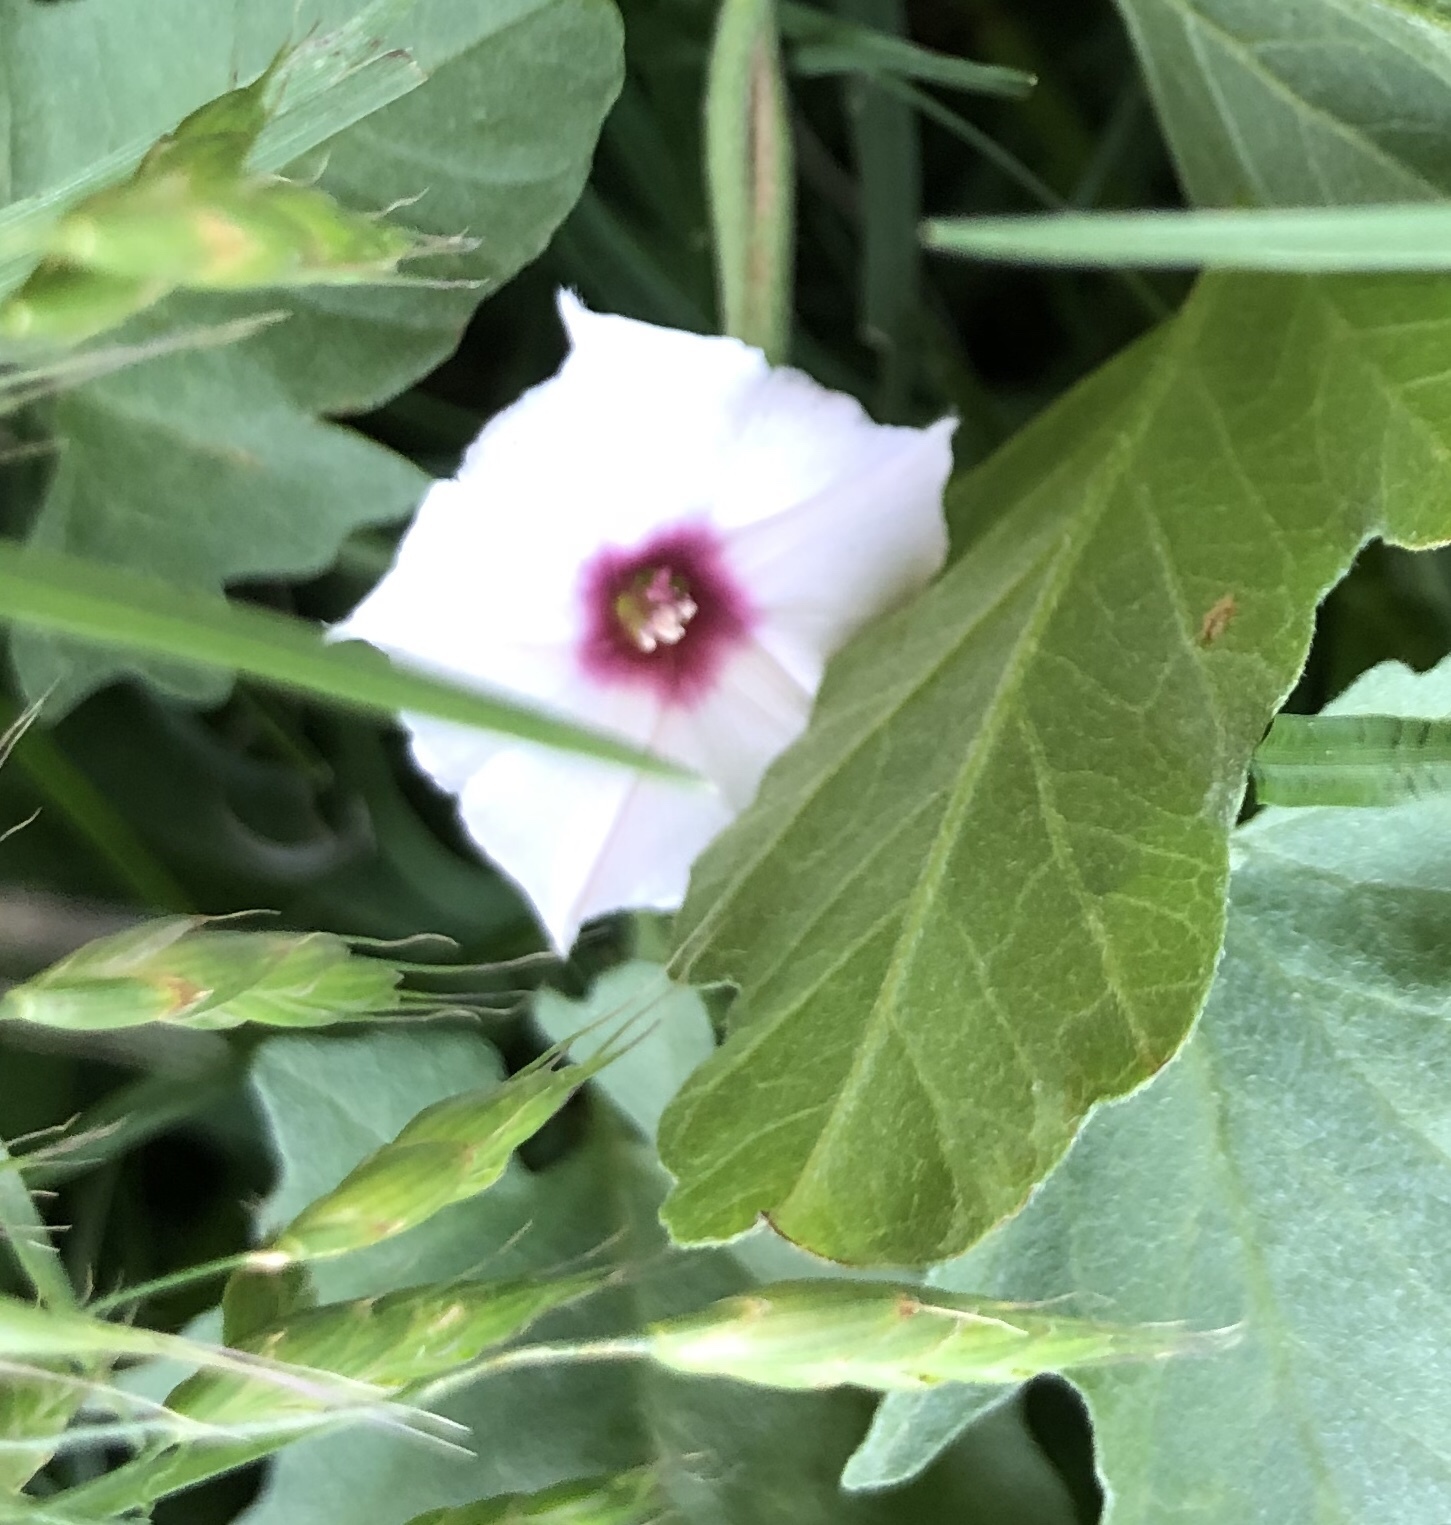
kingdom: Plantae
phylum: Tracheophyta
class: Magnoliopsida
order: Solanales
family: Convolvulaceae
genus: Convolvulus
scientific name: Convolvulus equitans
